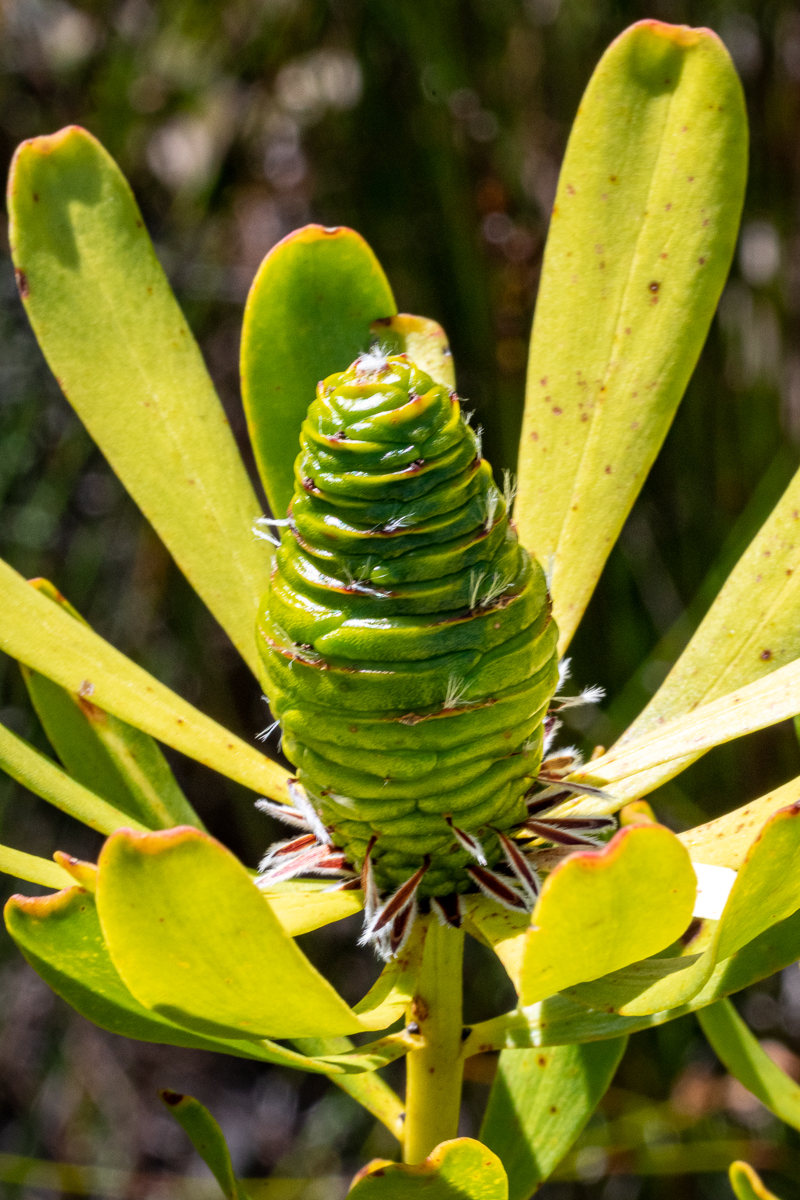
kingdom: Plantae
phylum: Tracheophyta
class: Magnoliopsida
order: Proteales
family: Proteaceae
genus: Leucadendron
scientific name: Leucadendron platyspermum
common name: Plate-seed conebush
